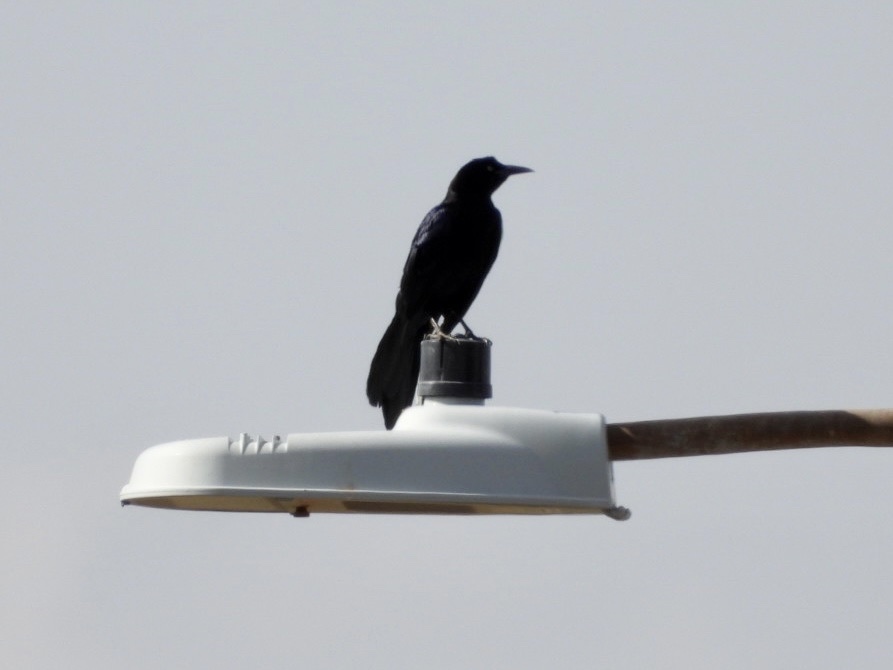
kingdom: Animalia
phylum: Chordata
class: Aves
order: Passeriformes
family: Icteridae
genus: Quiscalus
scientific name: Quiscalus mexicanus
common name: Great-tailed grackle
